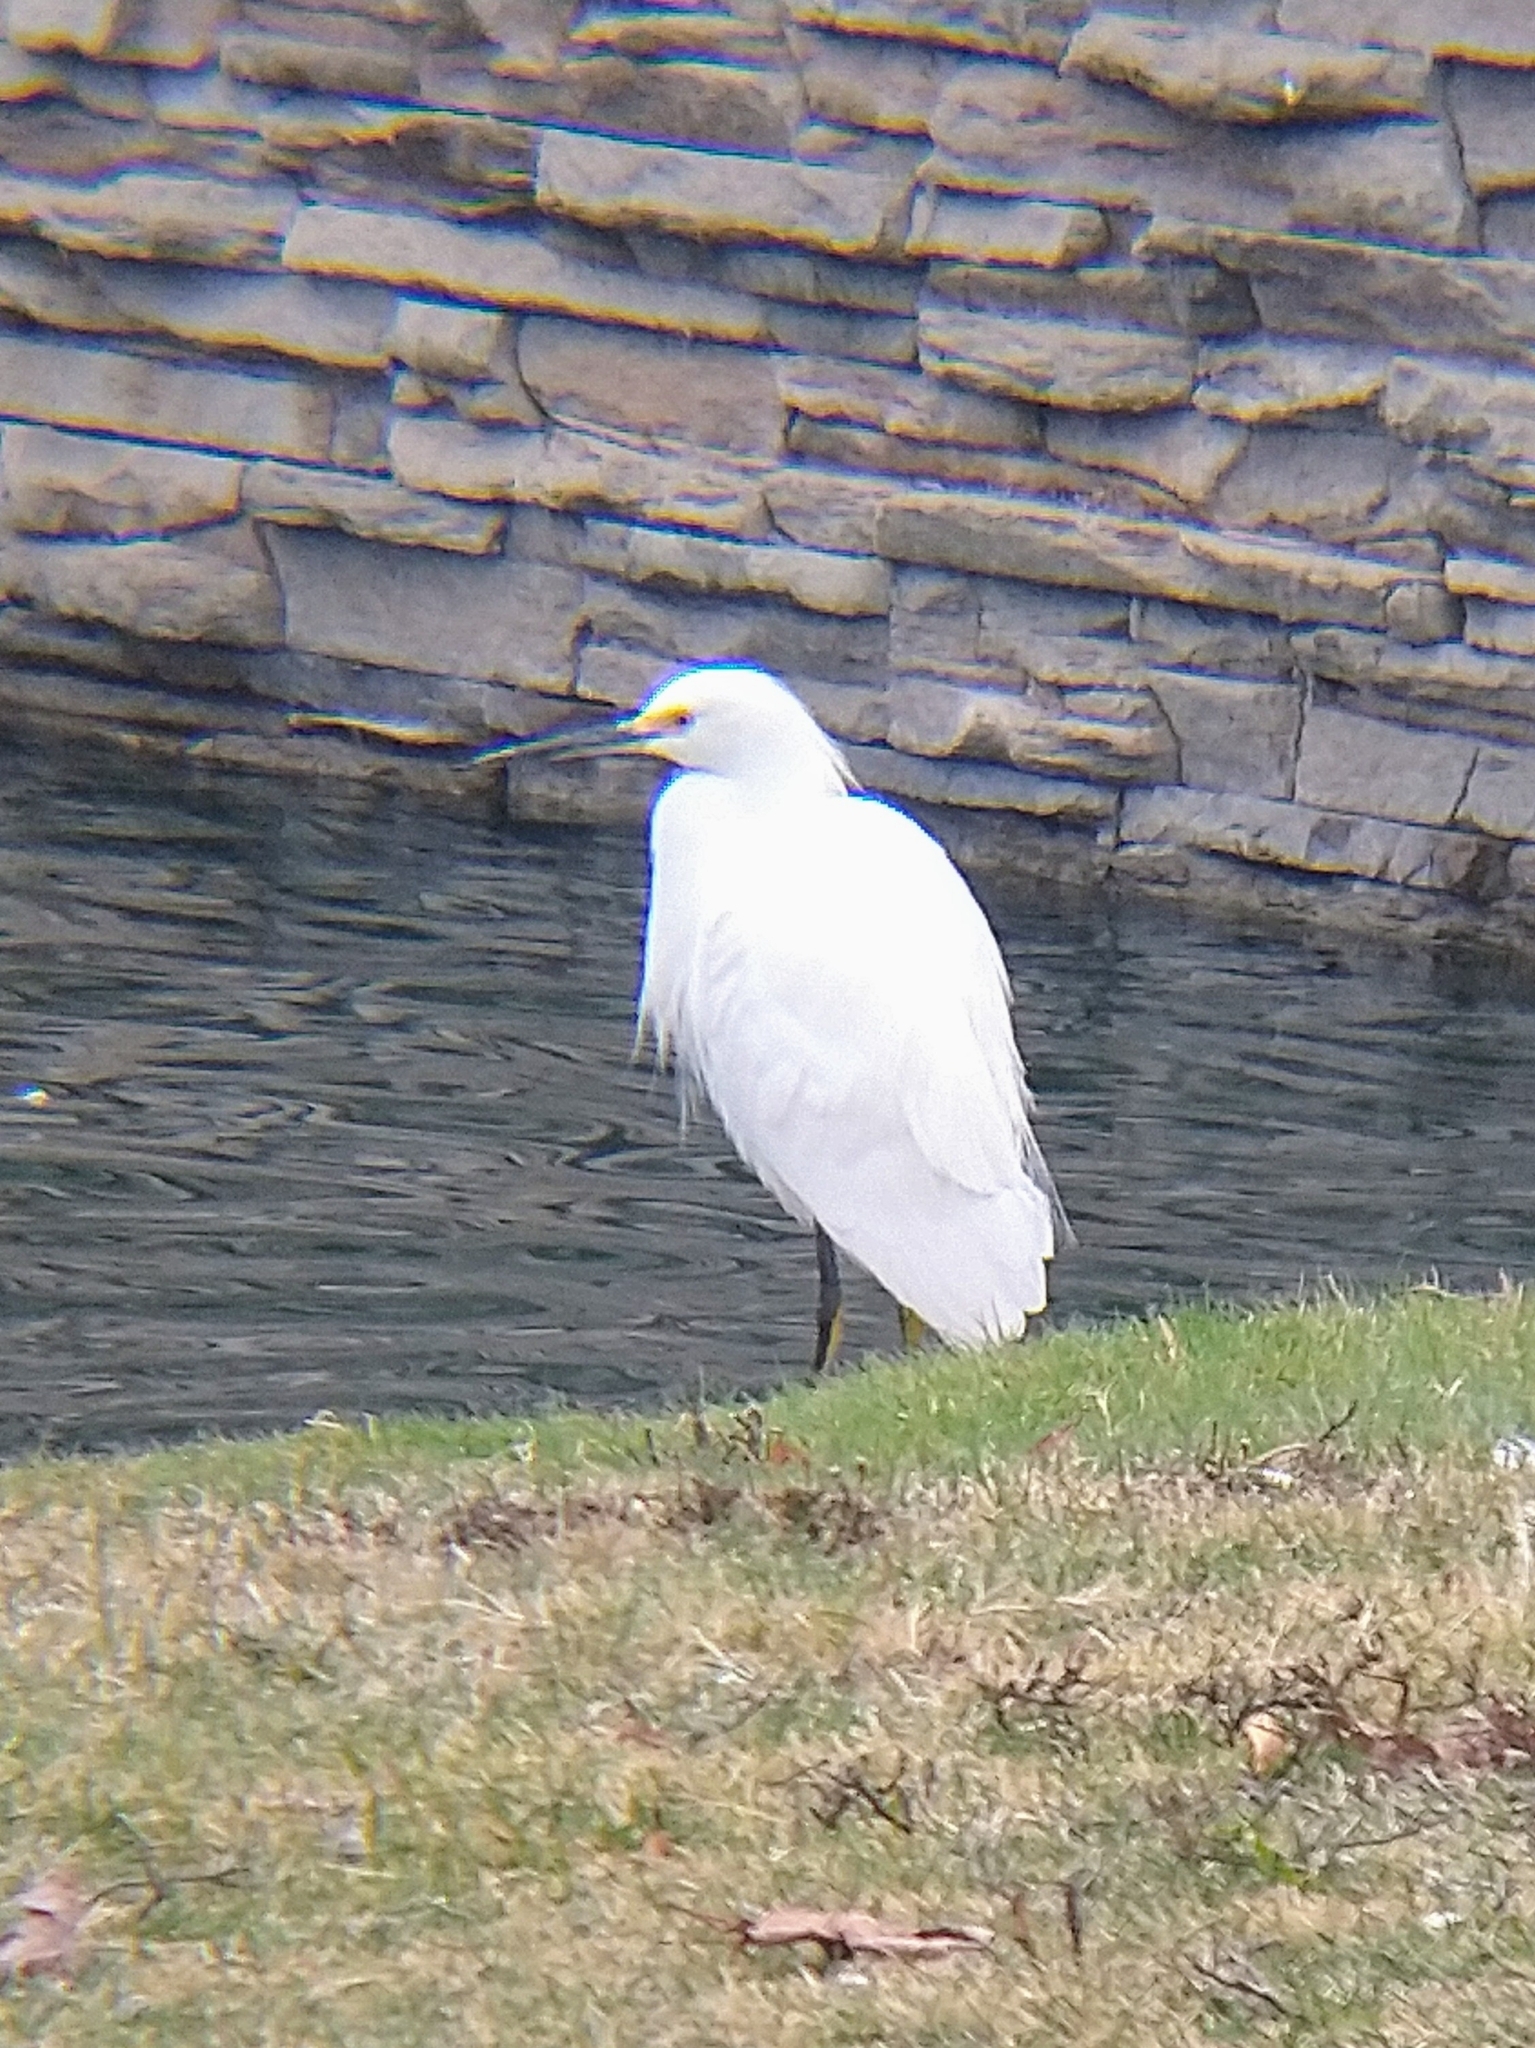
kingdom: Animalia
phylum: Chordata
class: Aves
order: Pelecaniformes
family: Ardeidae
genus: Egretta
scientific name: Egretta thula
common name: Snowy egret
